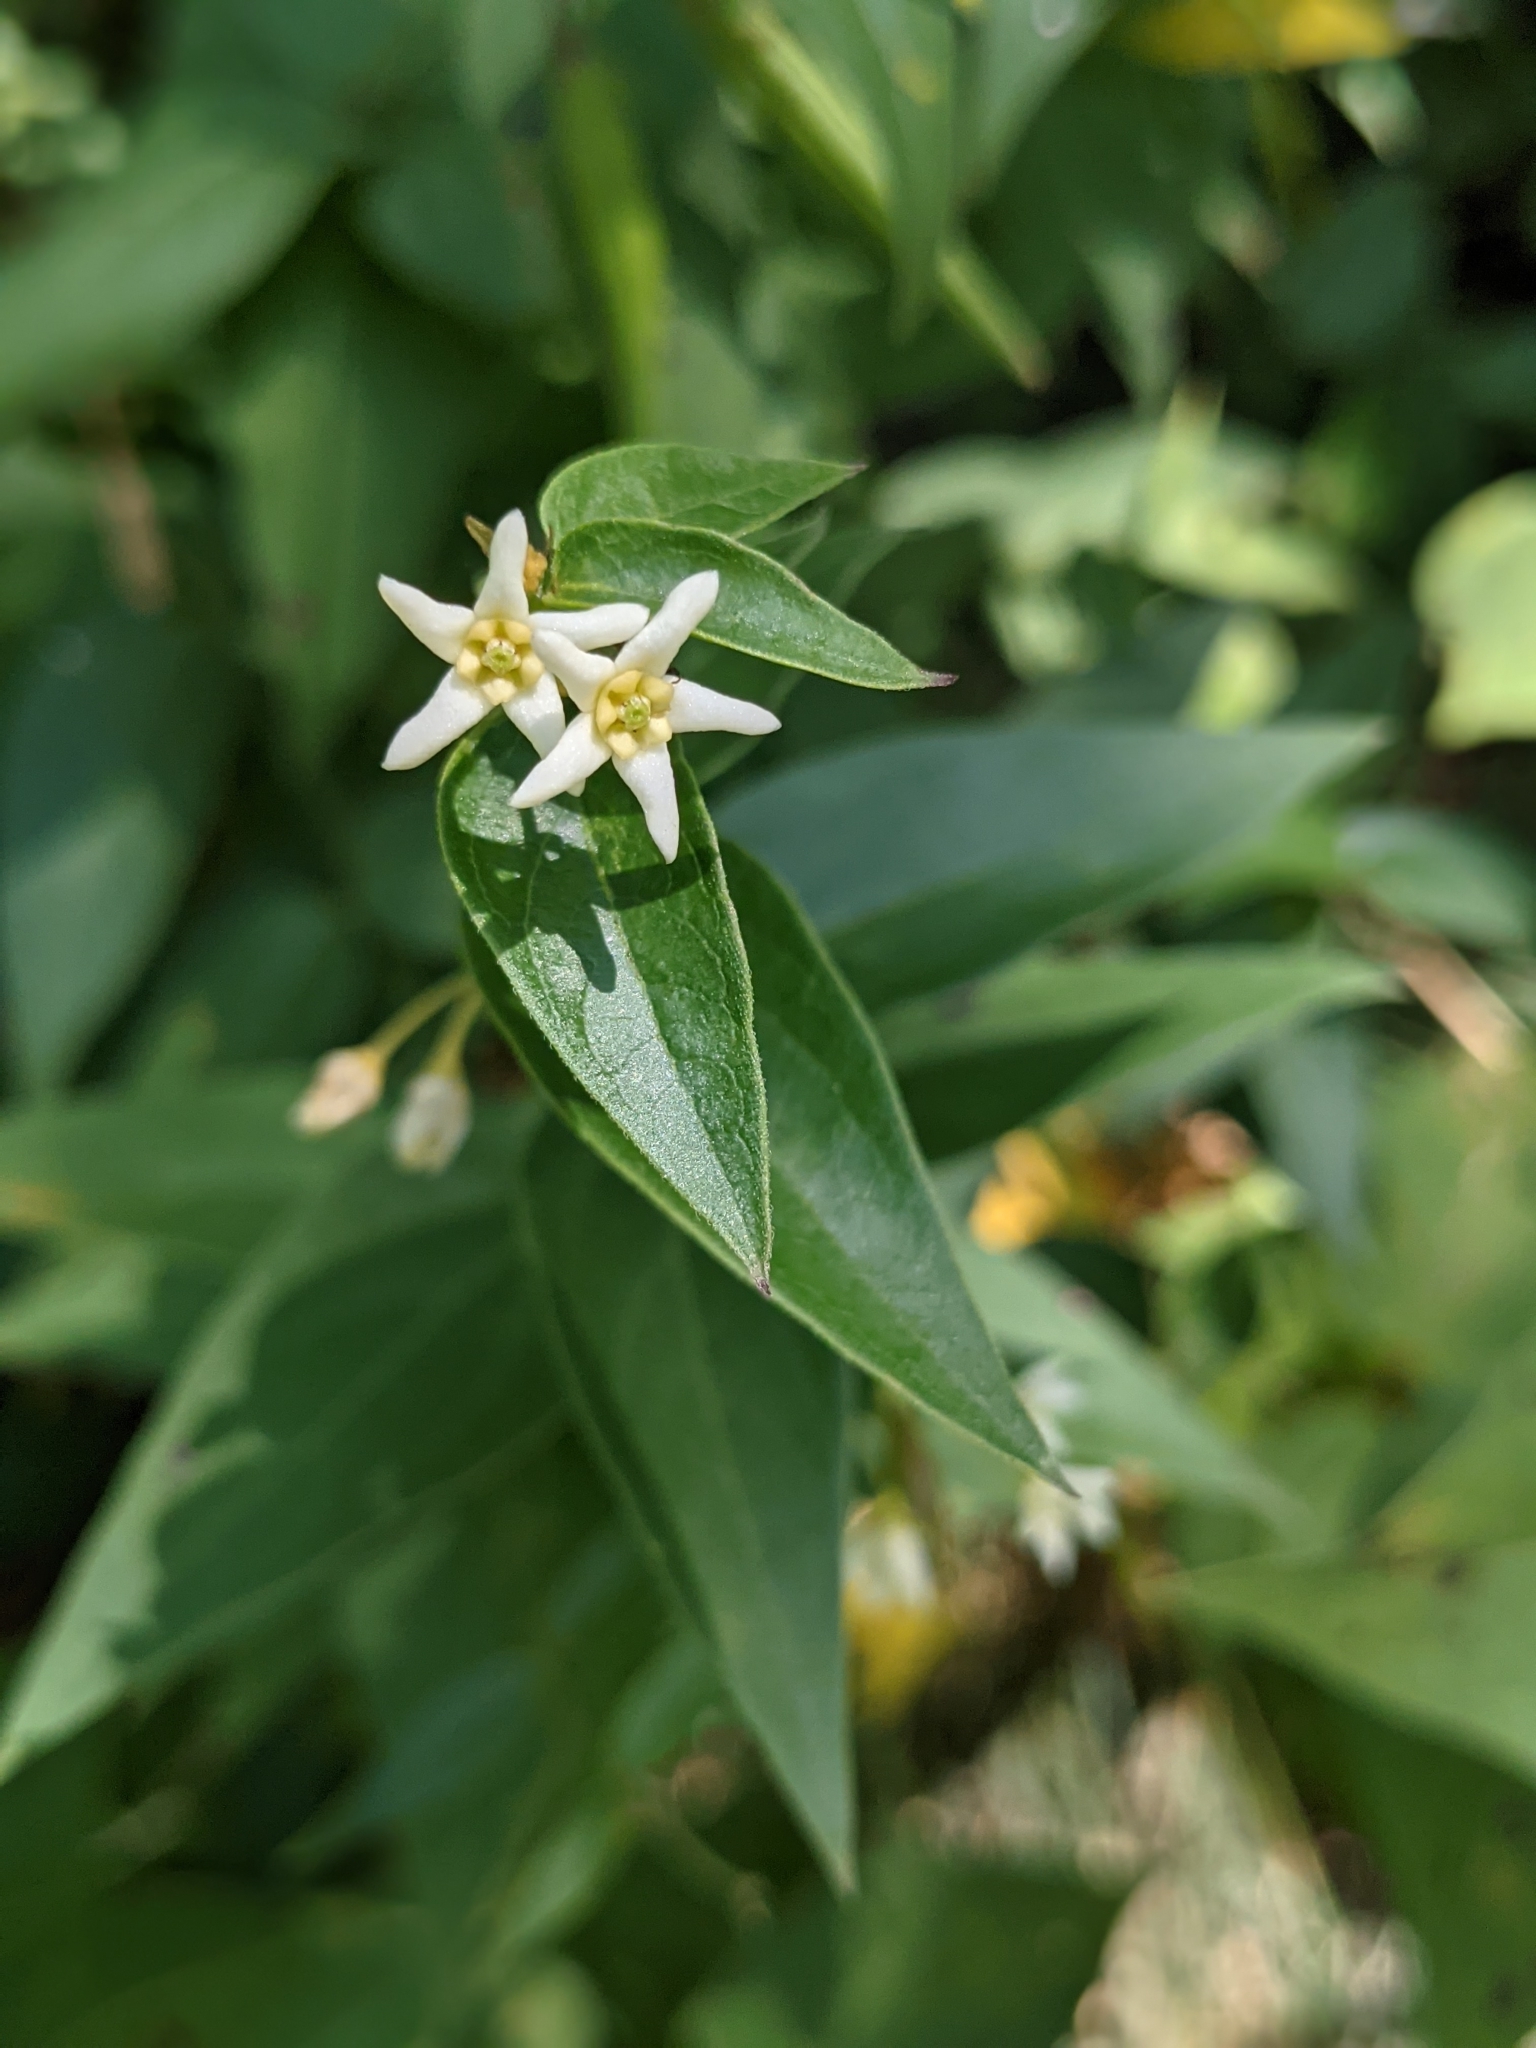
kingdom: Plantae
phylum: Tracheophyta
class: Magnoliopsida
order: Gentianales
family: Apocynaceae
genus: Vincetoxicum
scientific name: Vincetoxicum hirundinaria
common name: White swallowwort
